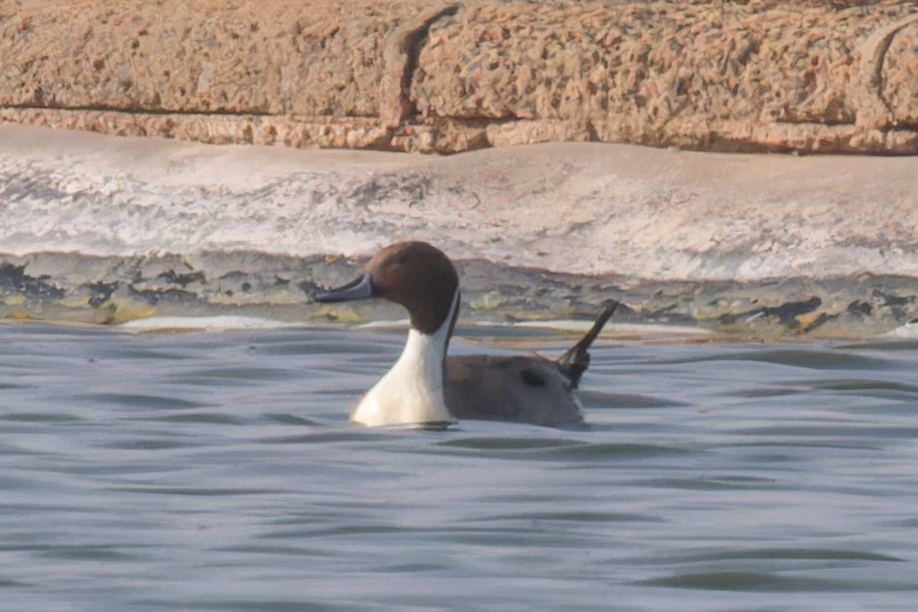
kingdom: Animalia
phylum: Chordata
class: Aves
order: Anseriformes
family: Anatidae
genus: Anas
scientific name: Anas acuta
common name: Northern pintail
